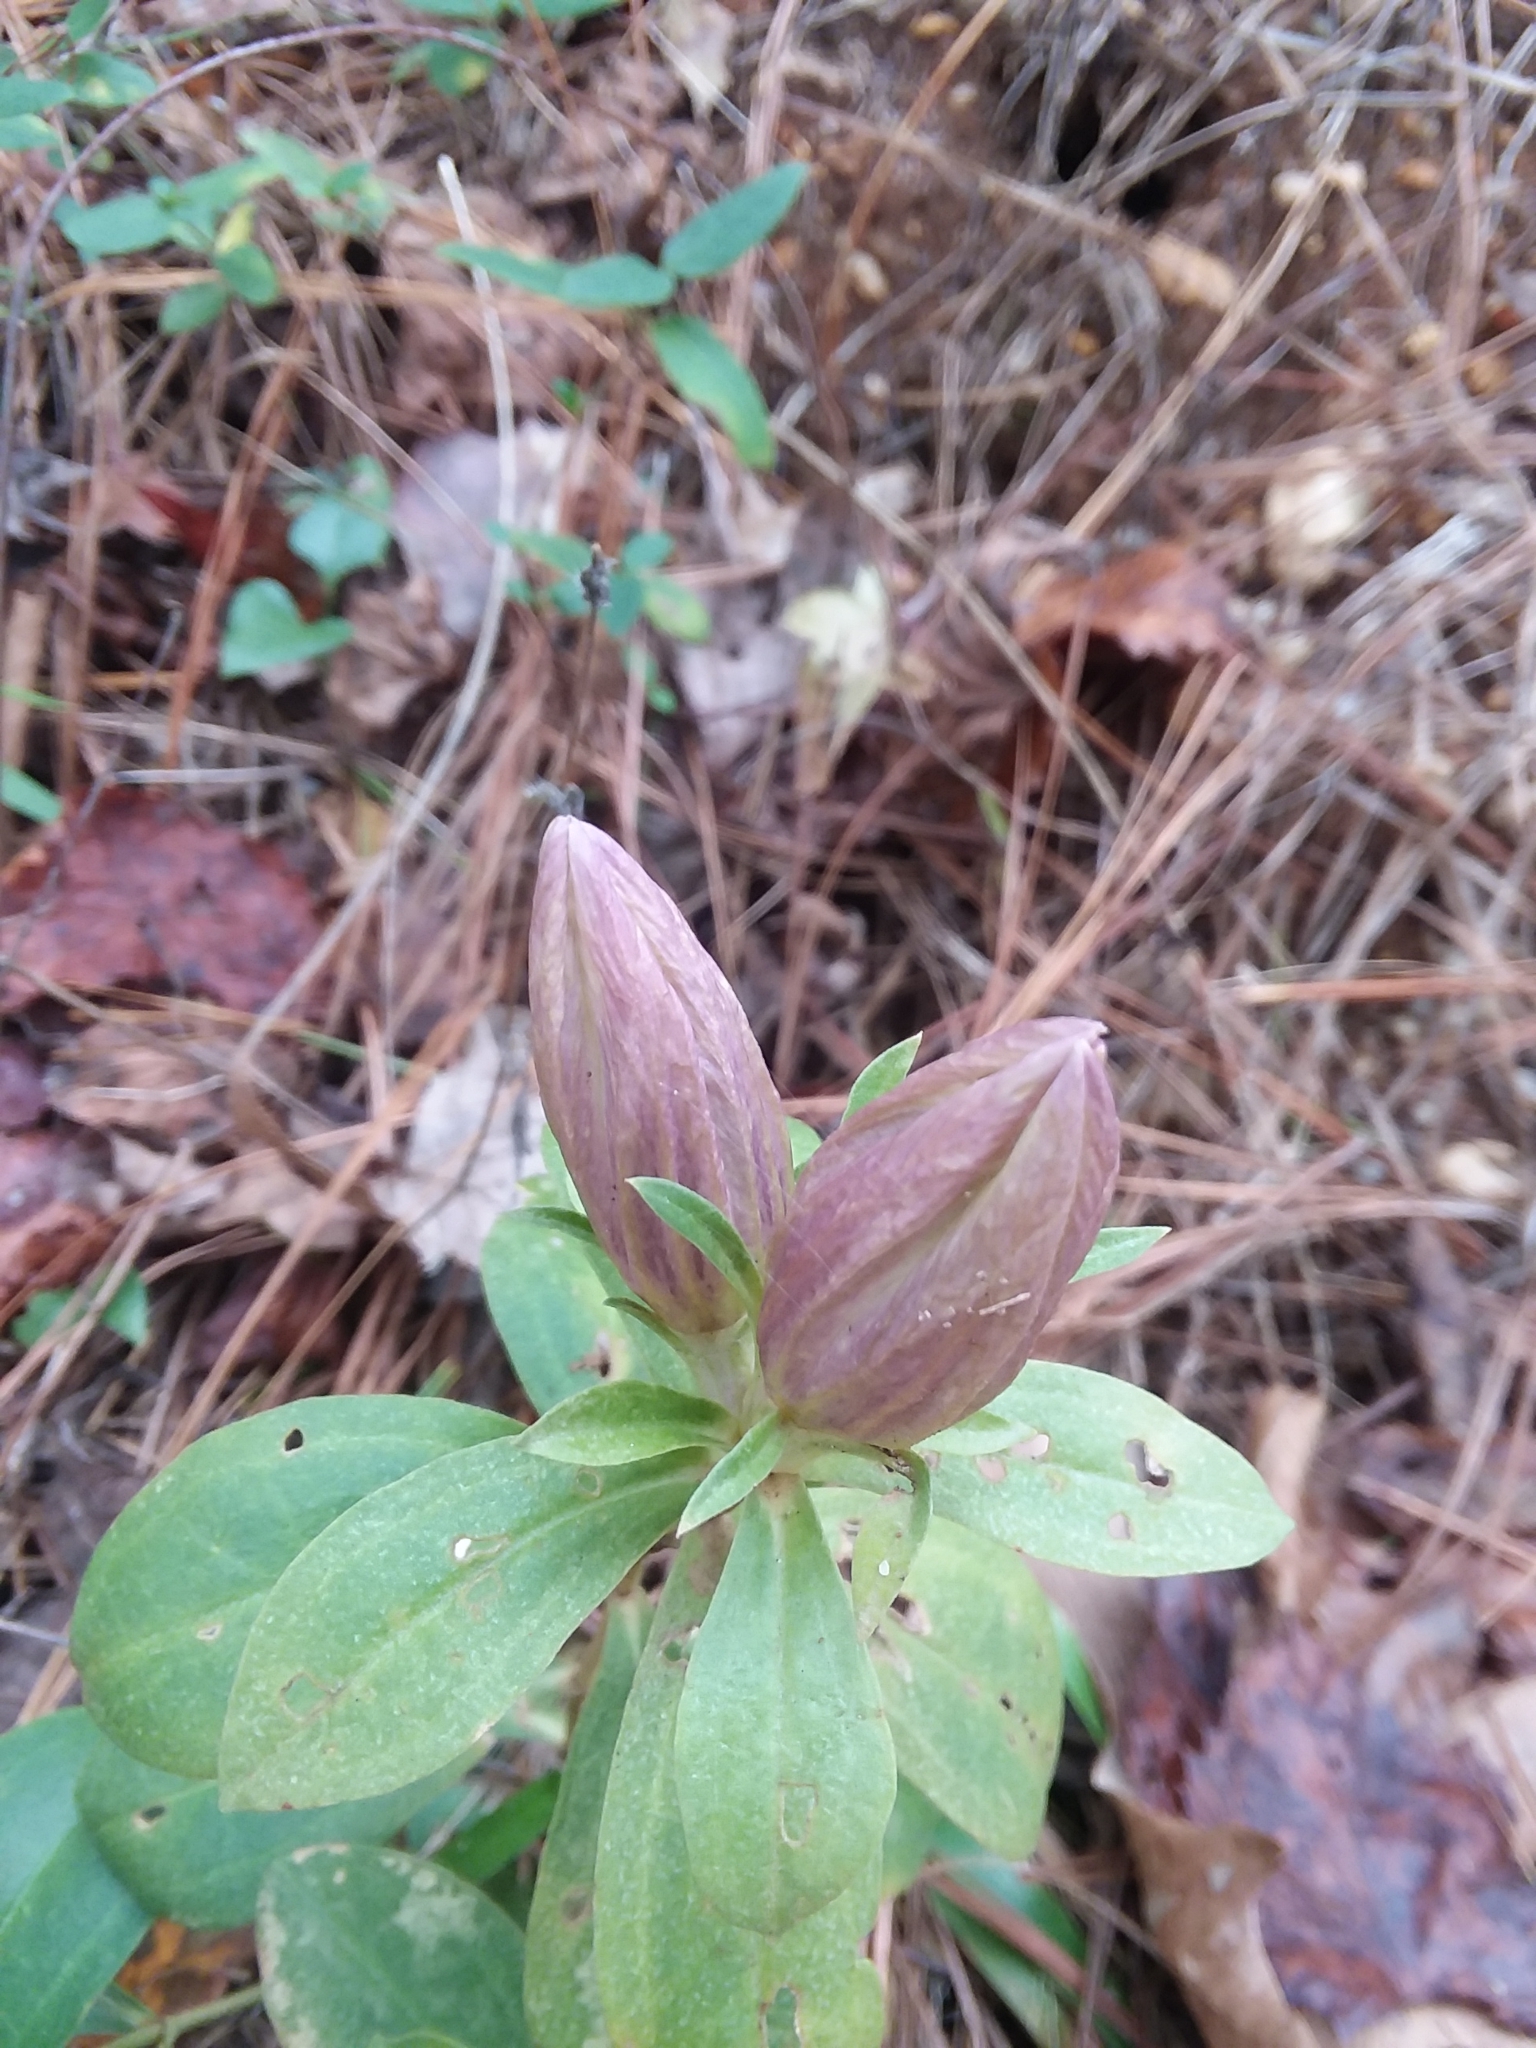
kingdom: Plantae
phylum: Tracheophyta
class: Magnoliopsida
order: Gentianales
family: Gentianaceae
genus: Gentiana
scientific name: Gentiana villosa
